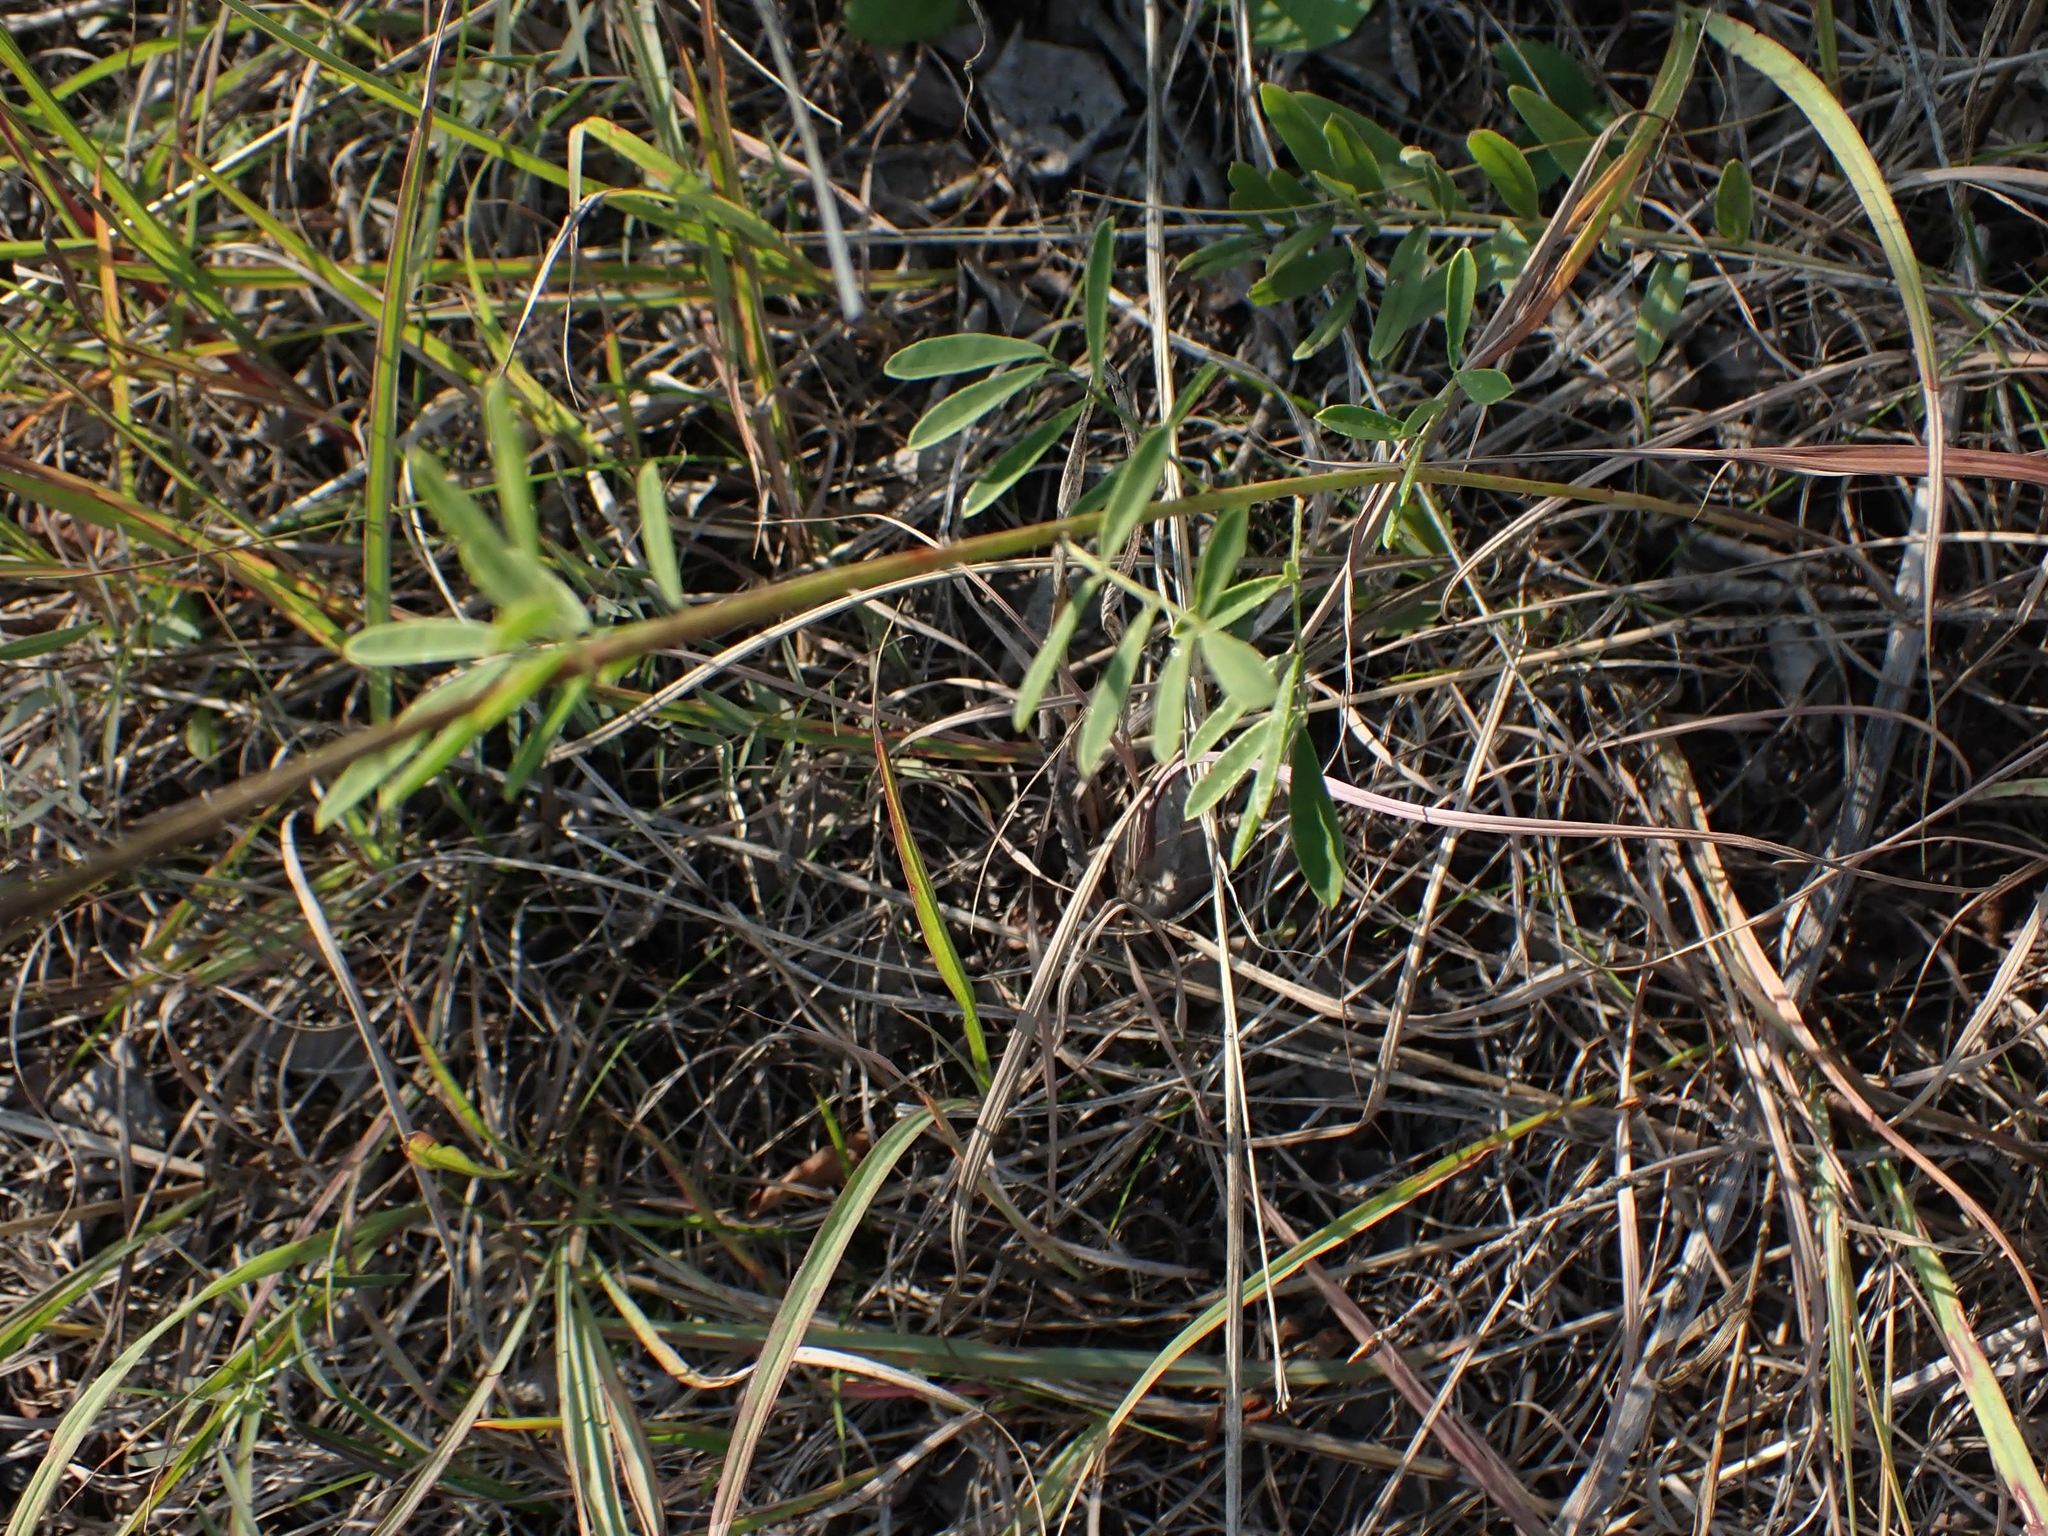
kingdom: Plantae
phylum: Tracheophyta
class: Magnoliopsida
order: Fabales
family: Fabaceae
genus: Dalea
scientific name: Dalea candida
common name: White prairie-clover
